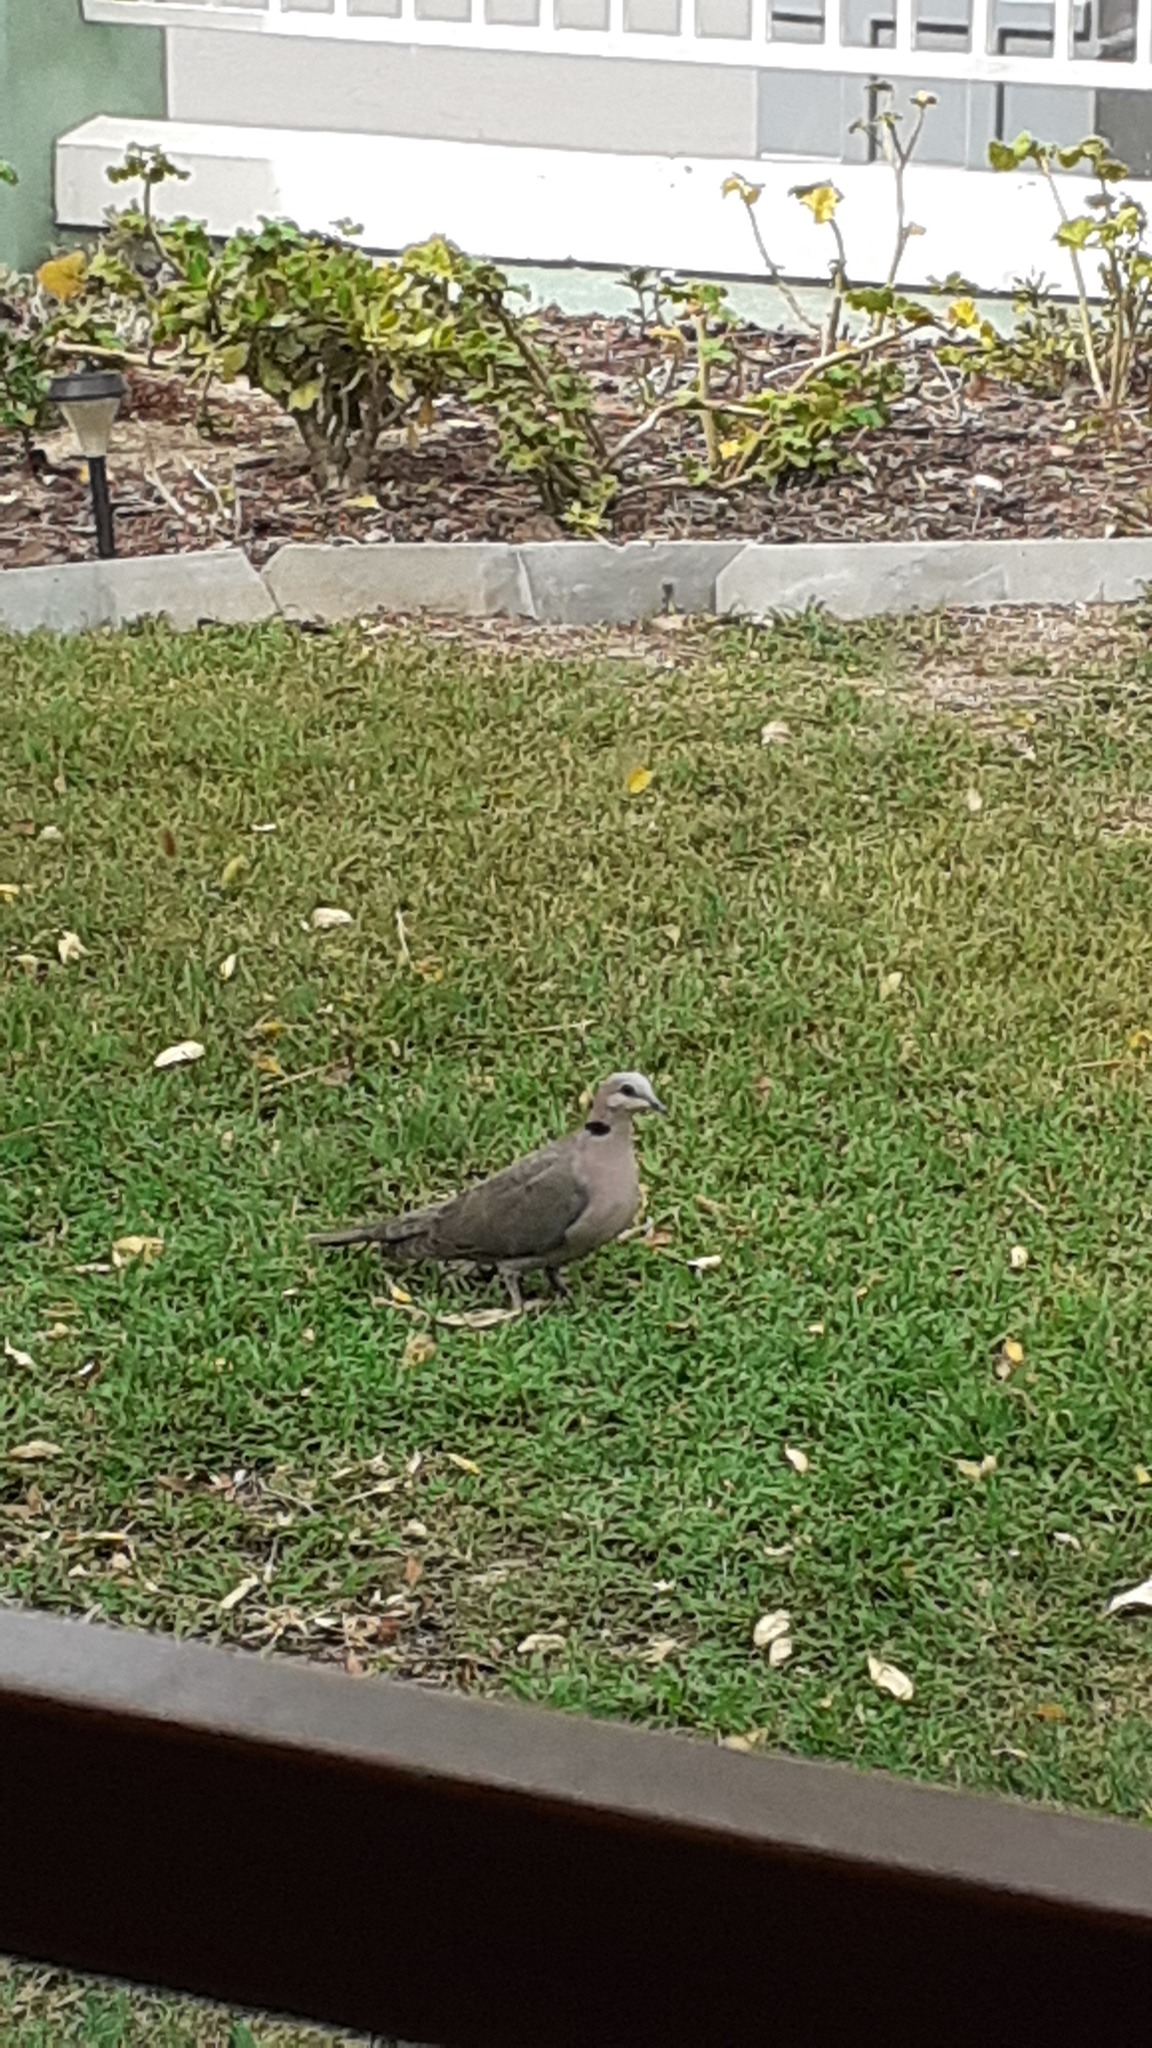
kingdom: Animalia
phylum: Chordata
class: Aves
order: Columbiformes
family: Columbidae
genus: Streptopelia
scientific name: Streptopelia semitorquata
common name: Red-eyed dove
